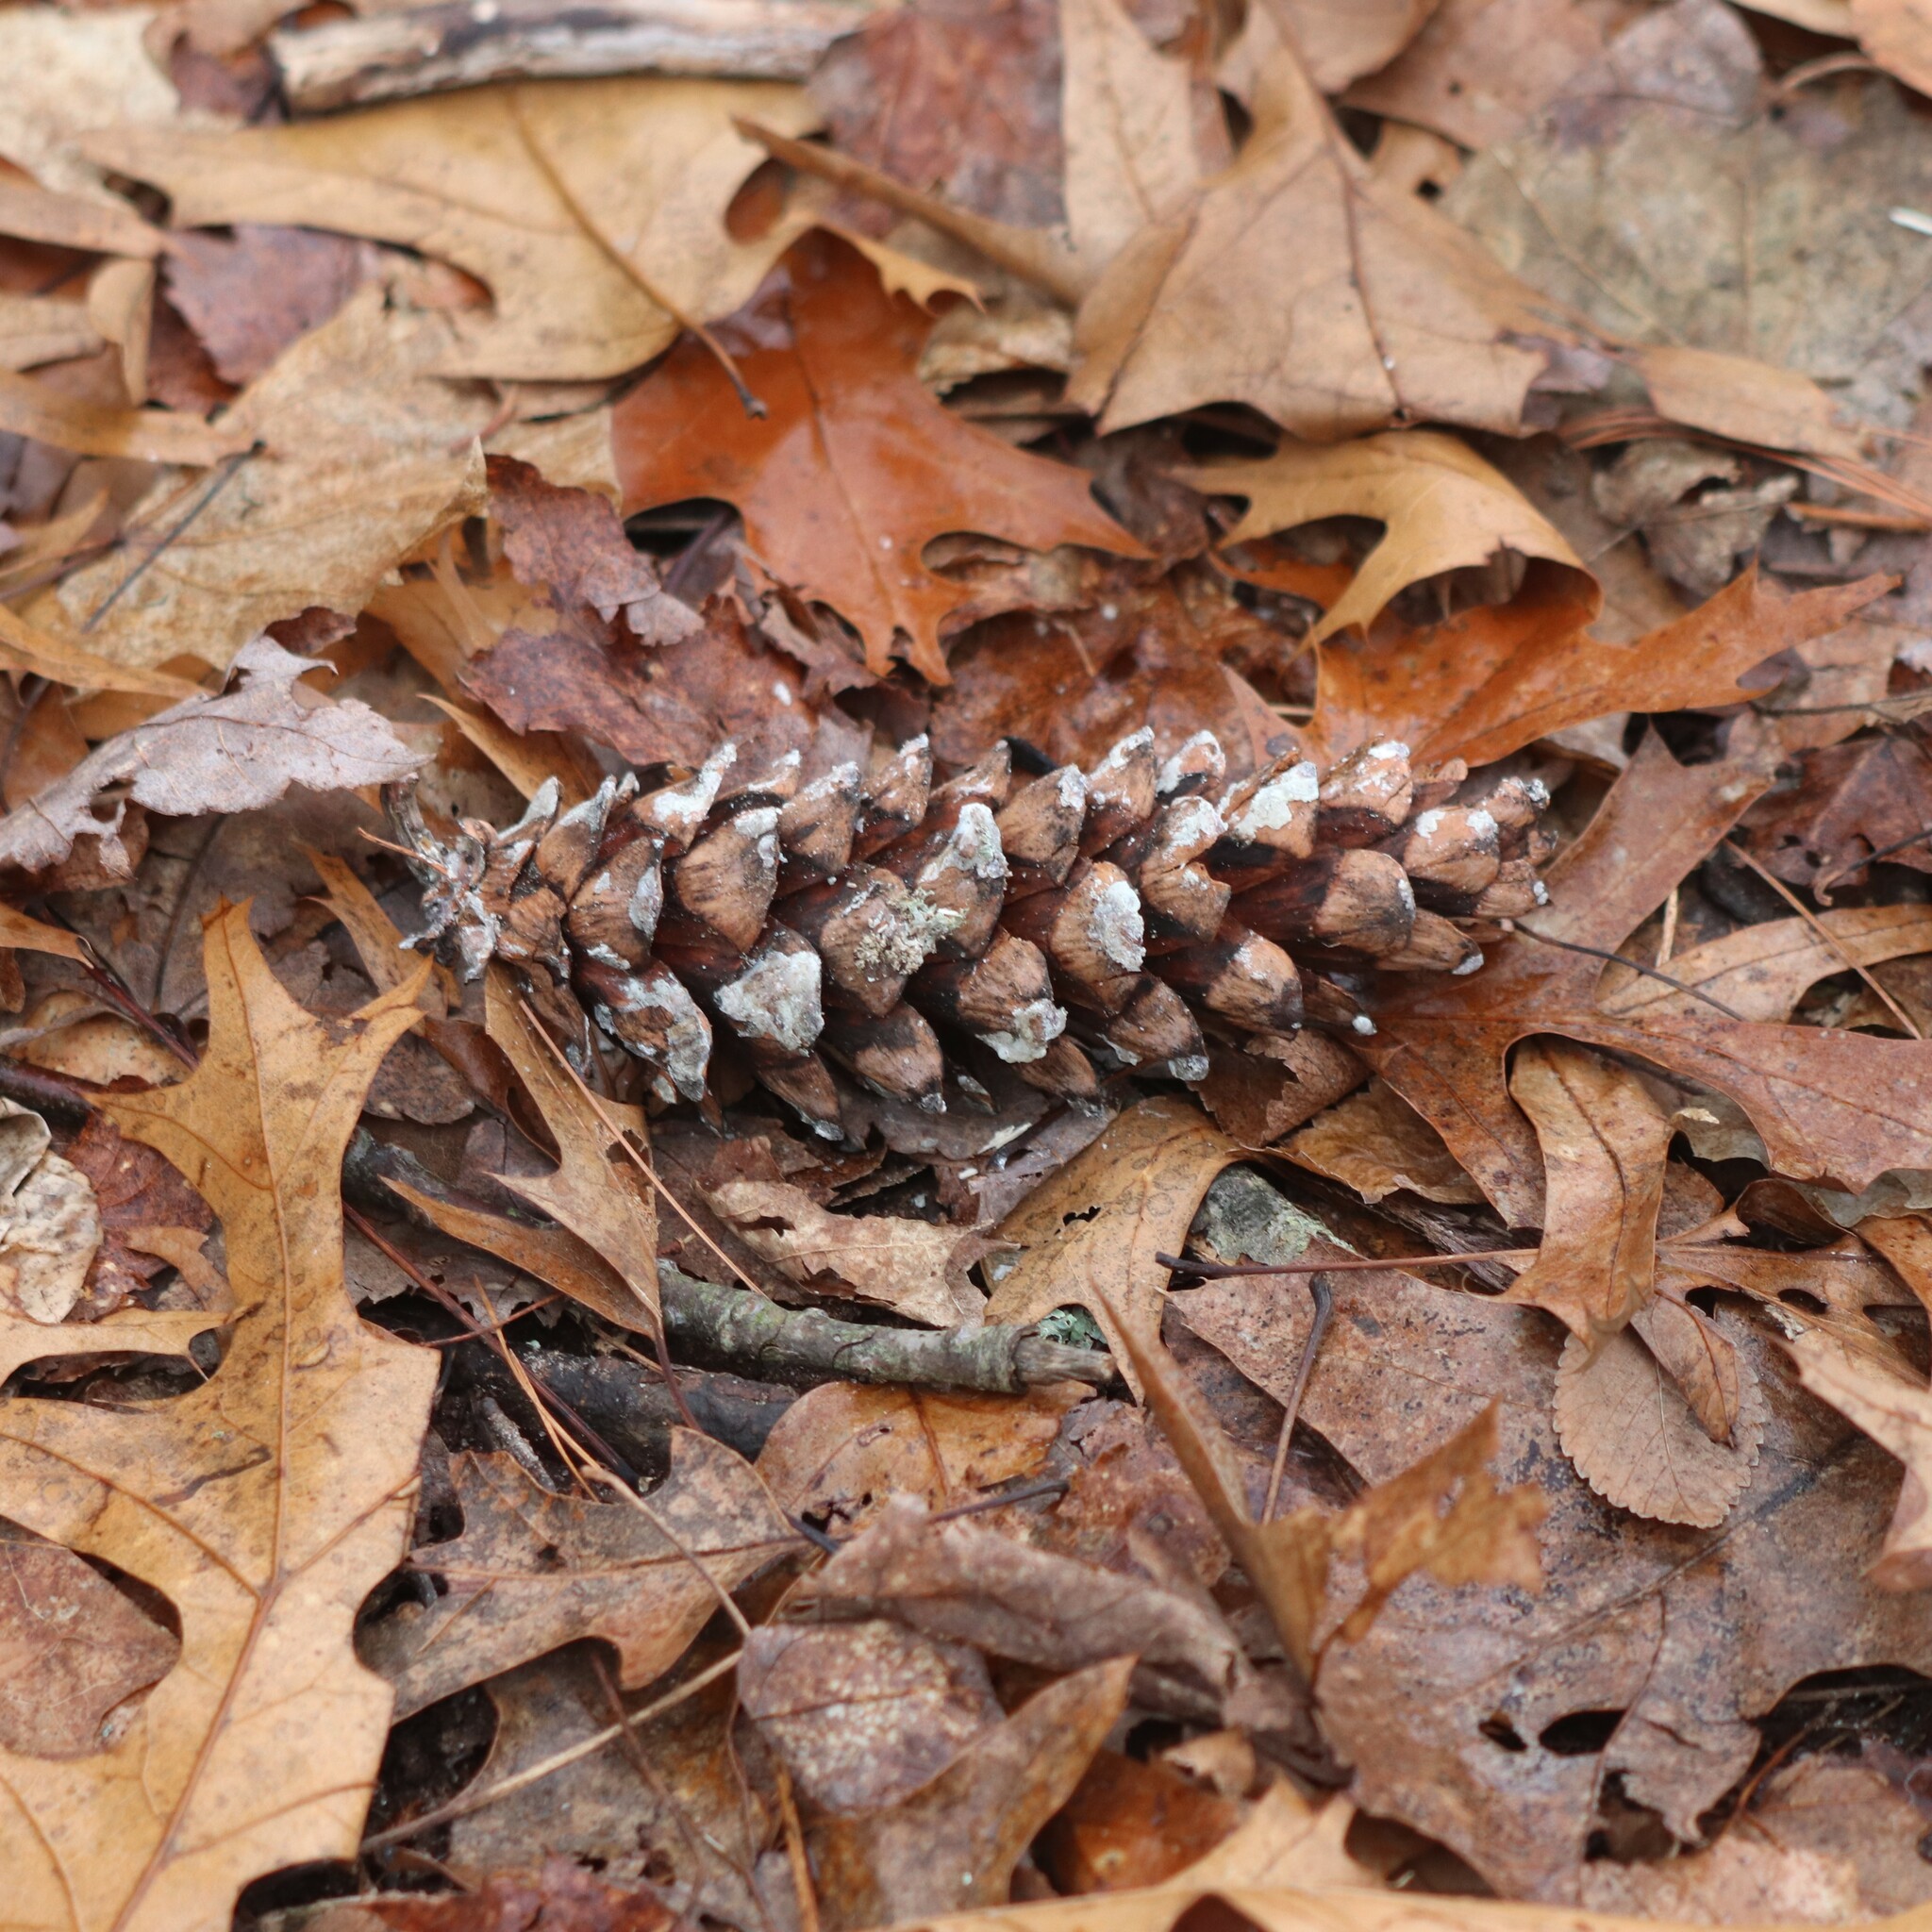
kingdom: Plantae
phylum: Tracheophyta
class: Pinopsida
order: Pinales
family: Pinaceae
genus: Pinus
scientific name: Pinus strobus
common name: Weymouth pine
